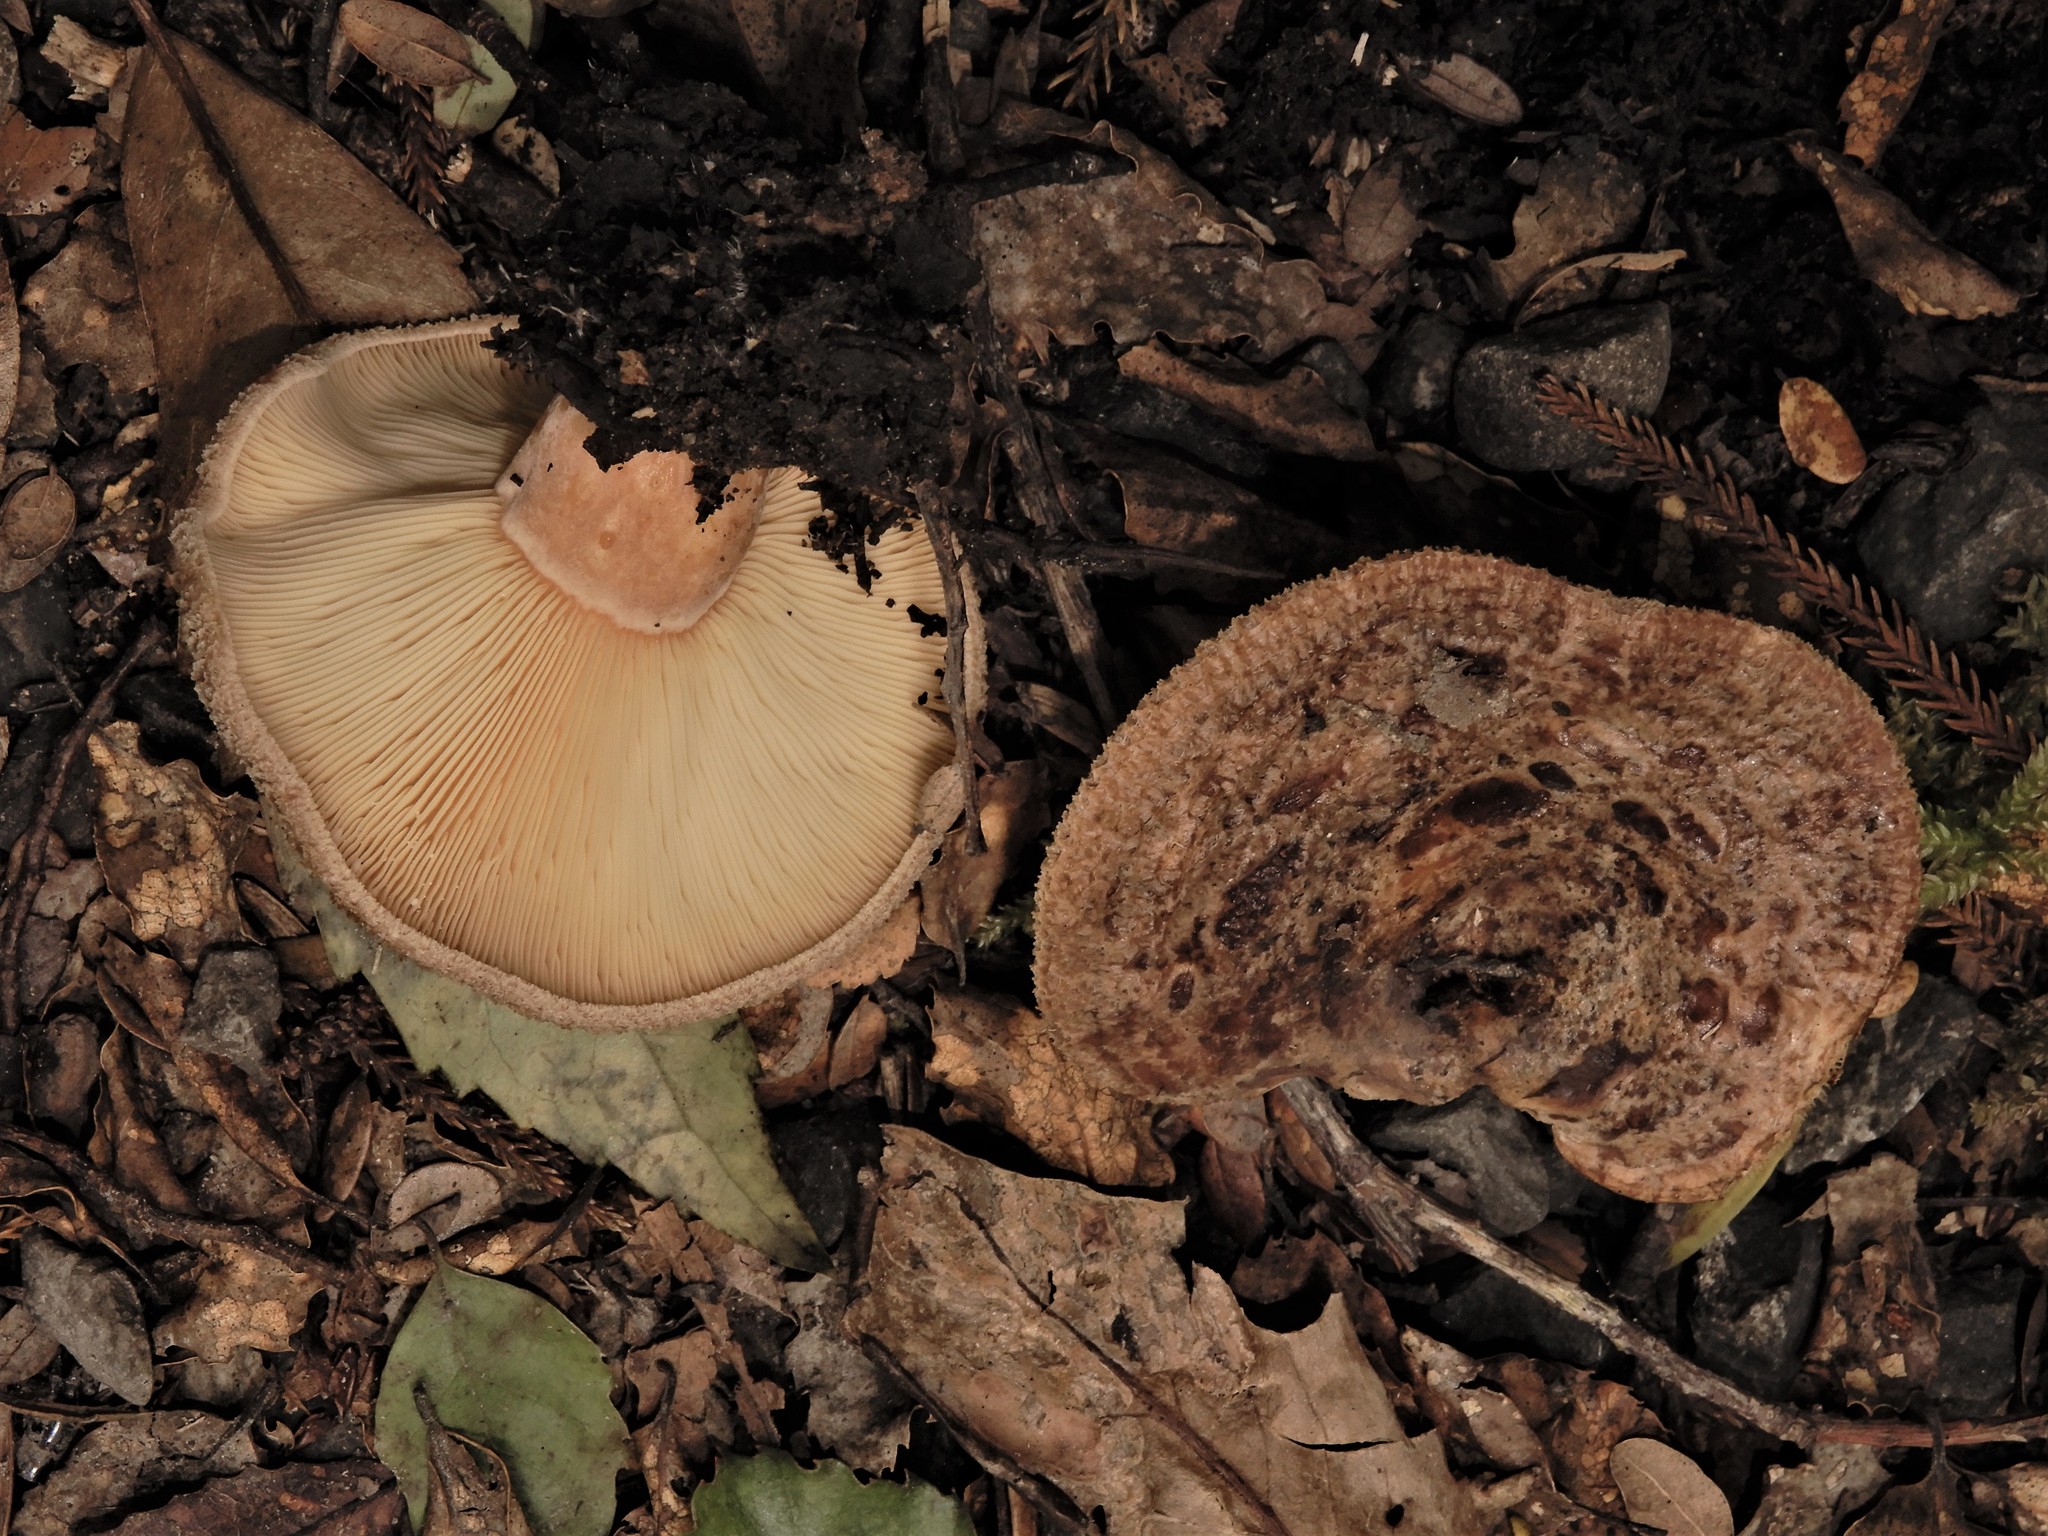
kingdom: Fungi
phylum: Basidiomycota
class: Agaricomycetes
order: Russulales
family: Russulaceae
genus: Lactarius
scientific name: Lactarius tawai
